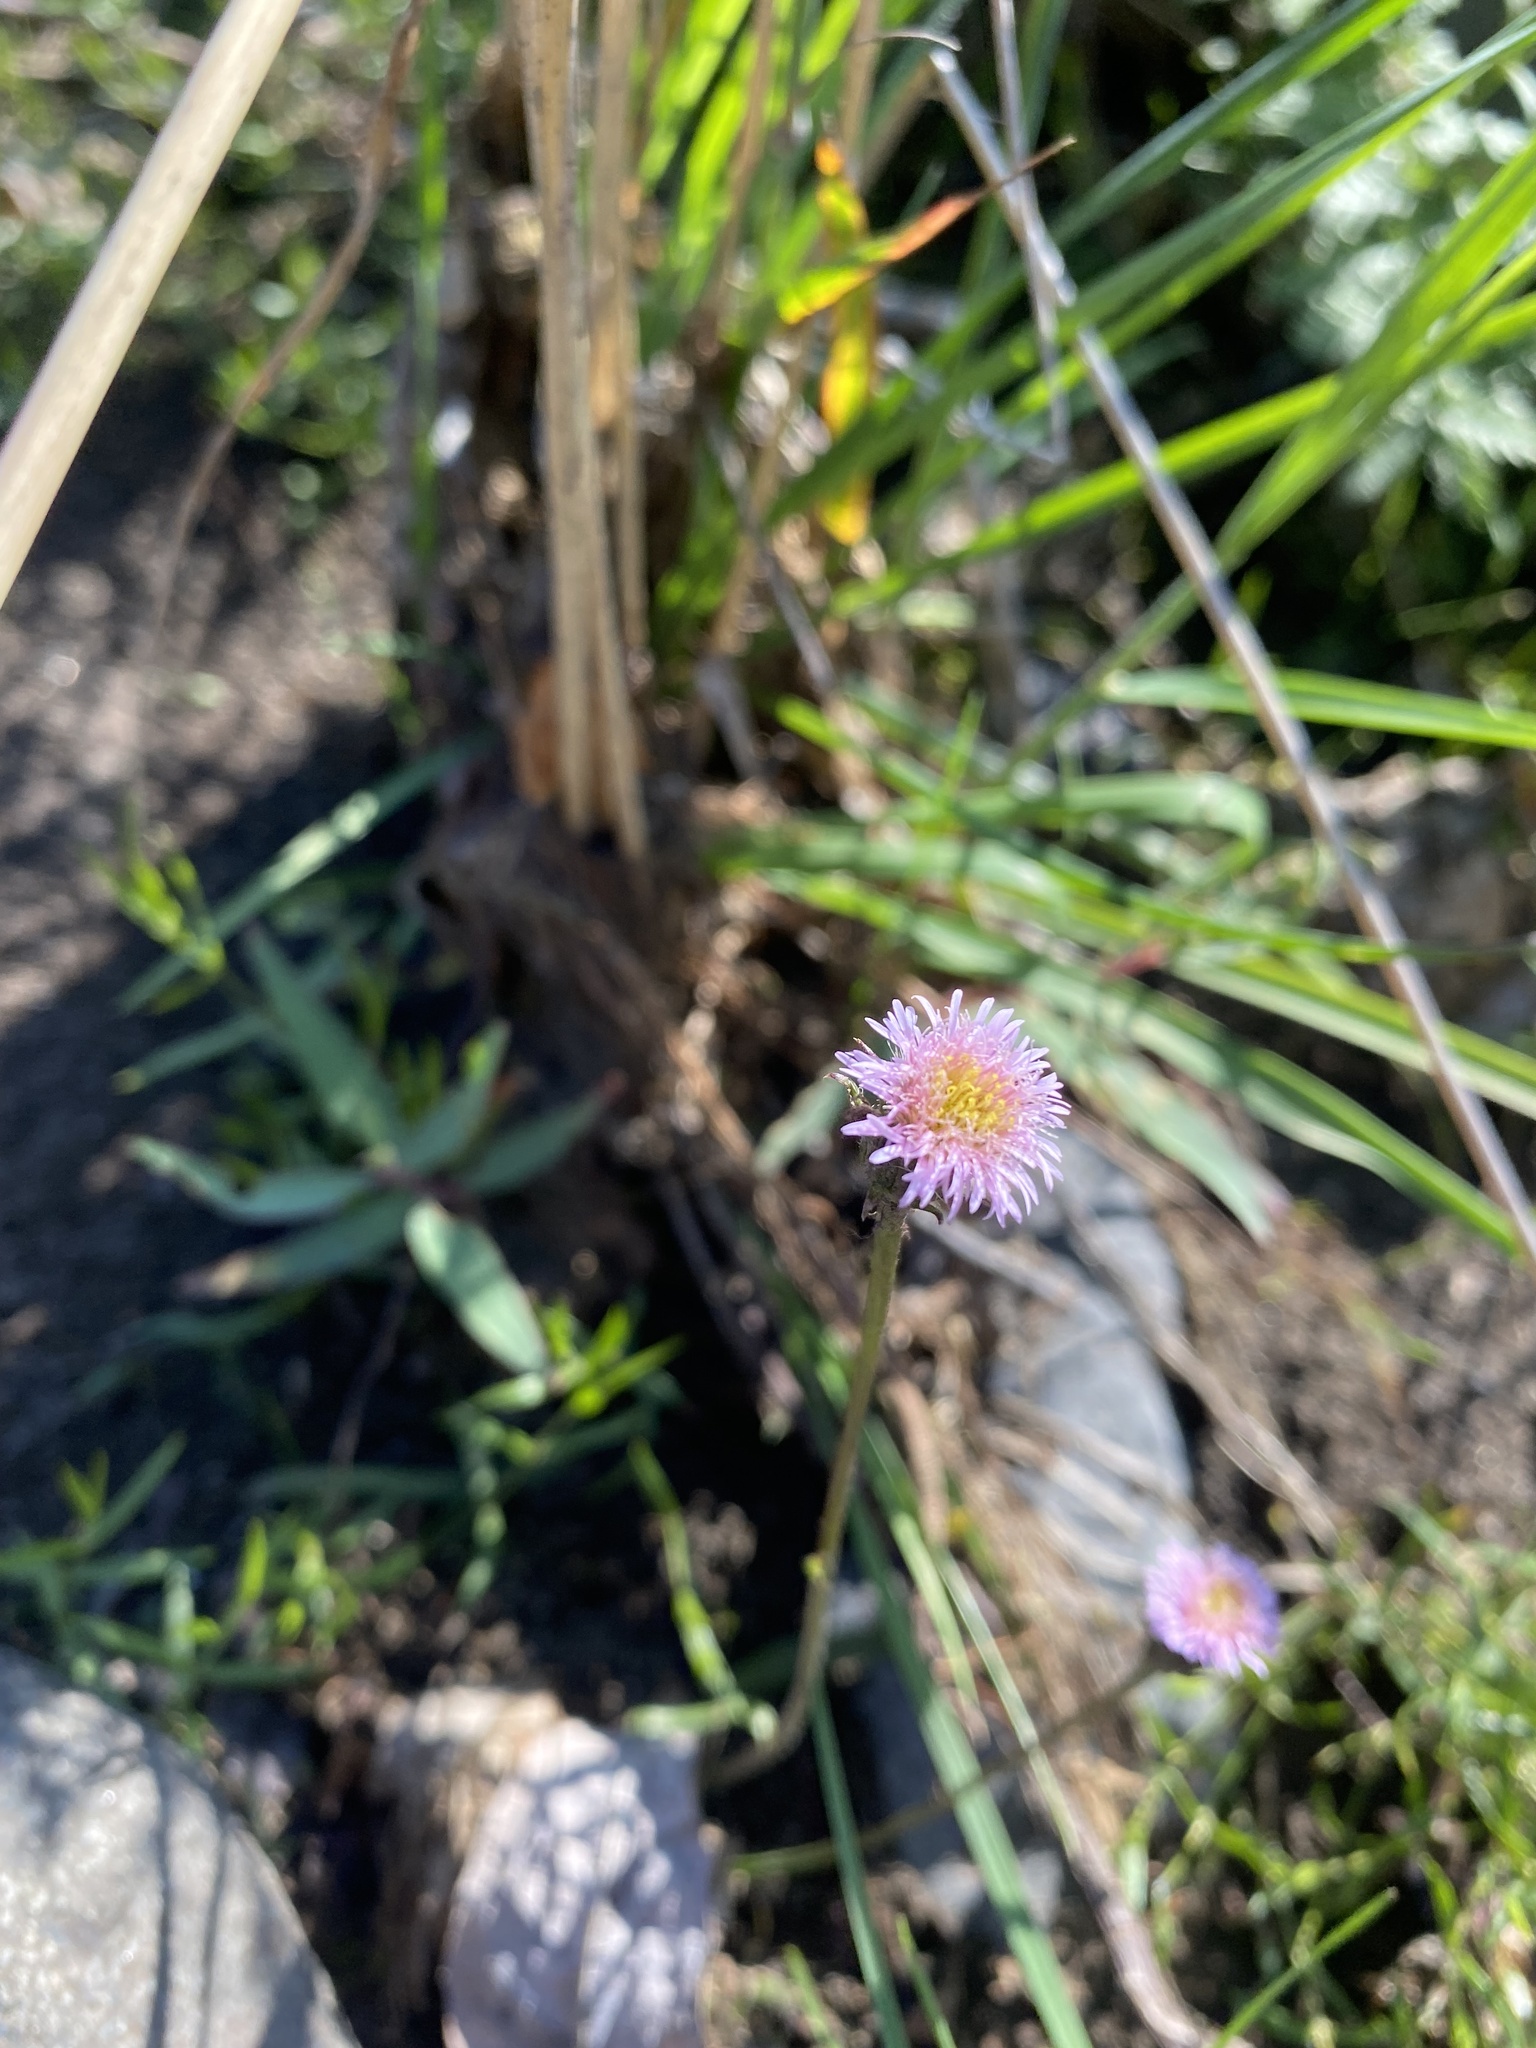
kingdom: Plantae
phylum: Tracheophyta
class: Magnoliopsida
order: Asterales
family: Asteraceae
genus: Erigeron
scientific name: Erigeron acris
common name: Blue fleabane
